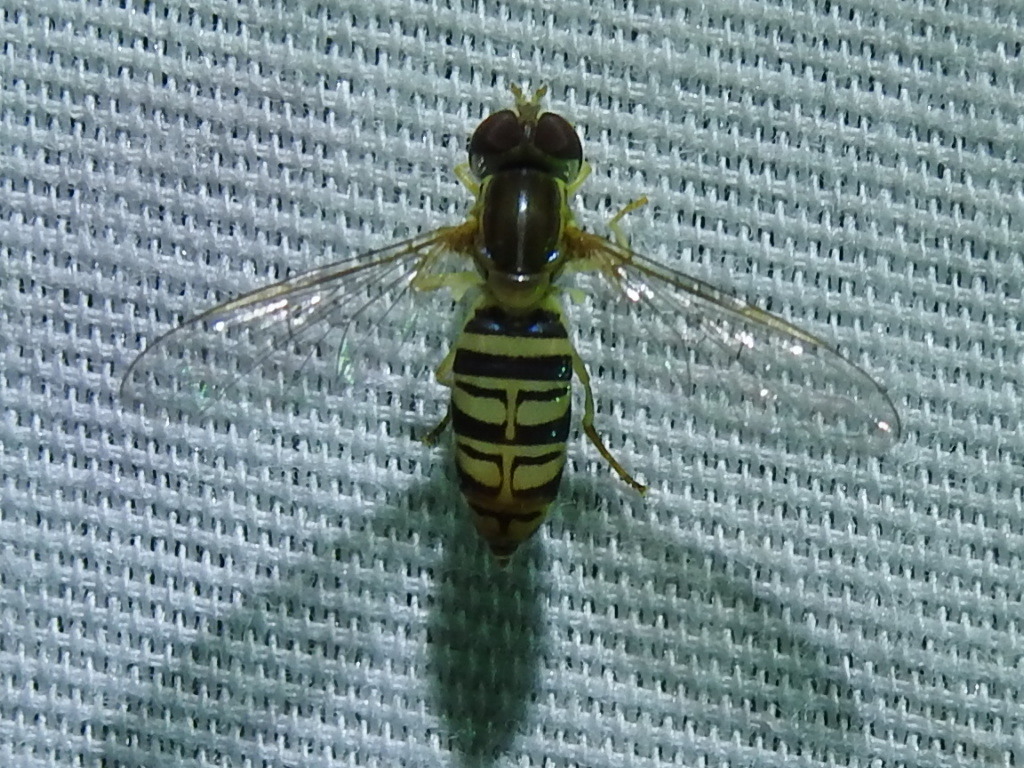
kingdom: Animalia
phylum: Arthropoda
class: Insecta
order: Diptera
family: Syrphidae
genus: Toxomerus
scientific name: Toxomerus politus
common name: Maize calligrapher
